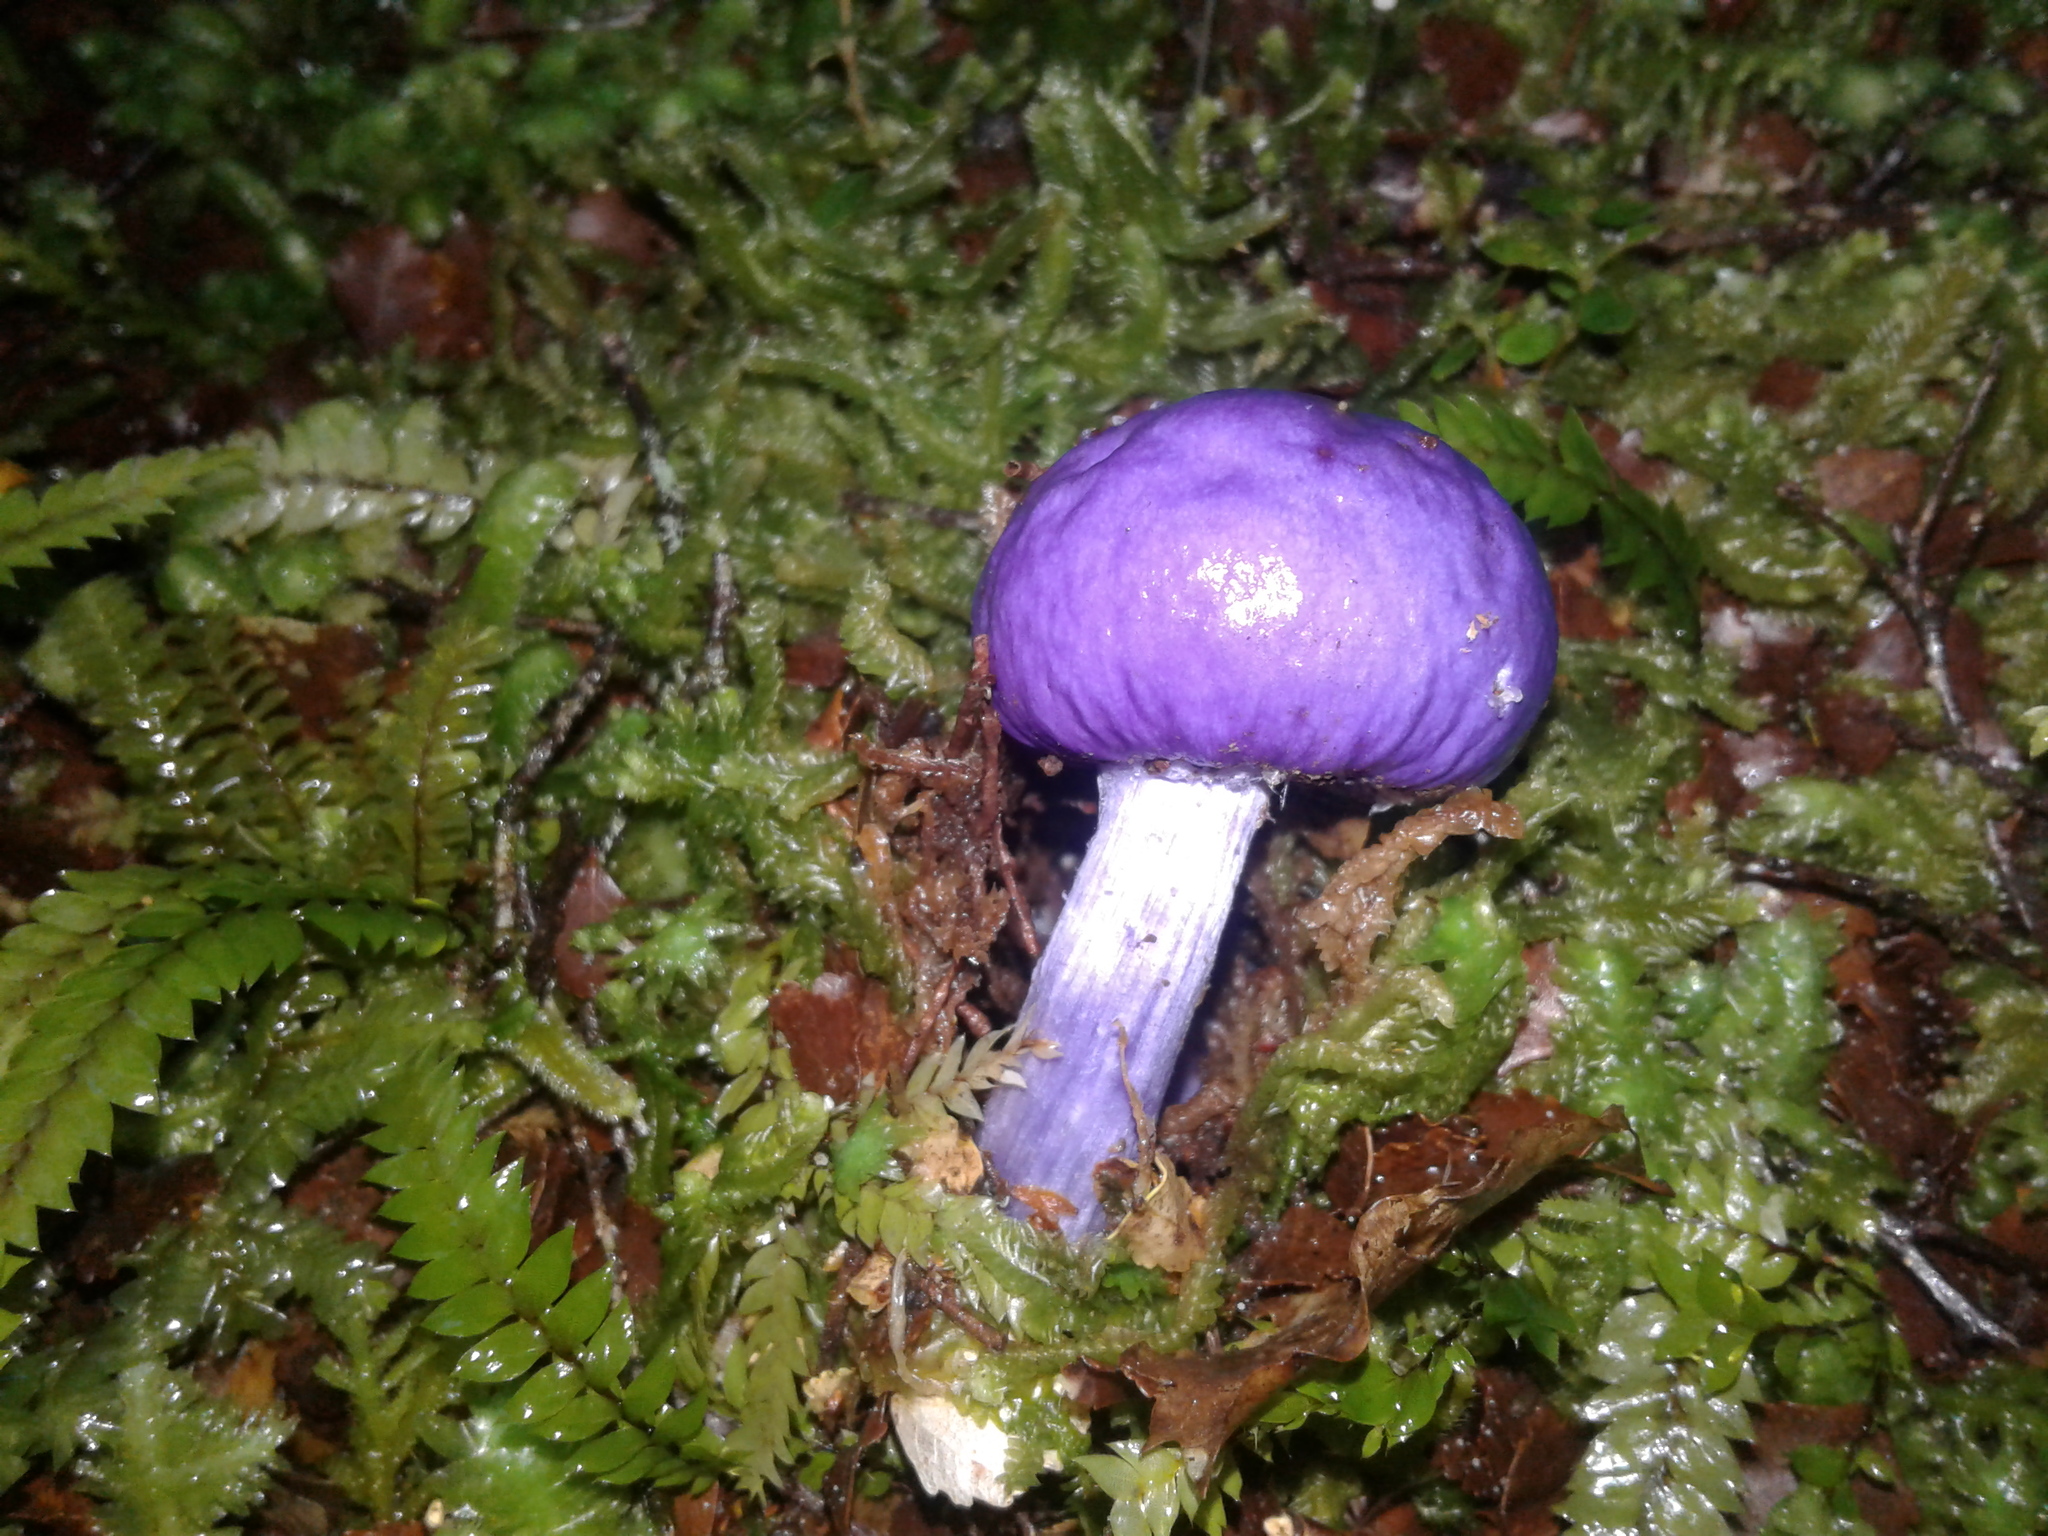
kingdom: Fungi
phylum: Basidiomycota
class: Agaricomycetes
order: Agaricales
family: Cortinariaceae
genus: Cortinarius
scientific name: Cortinarius
